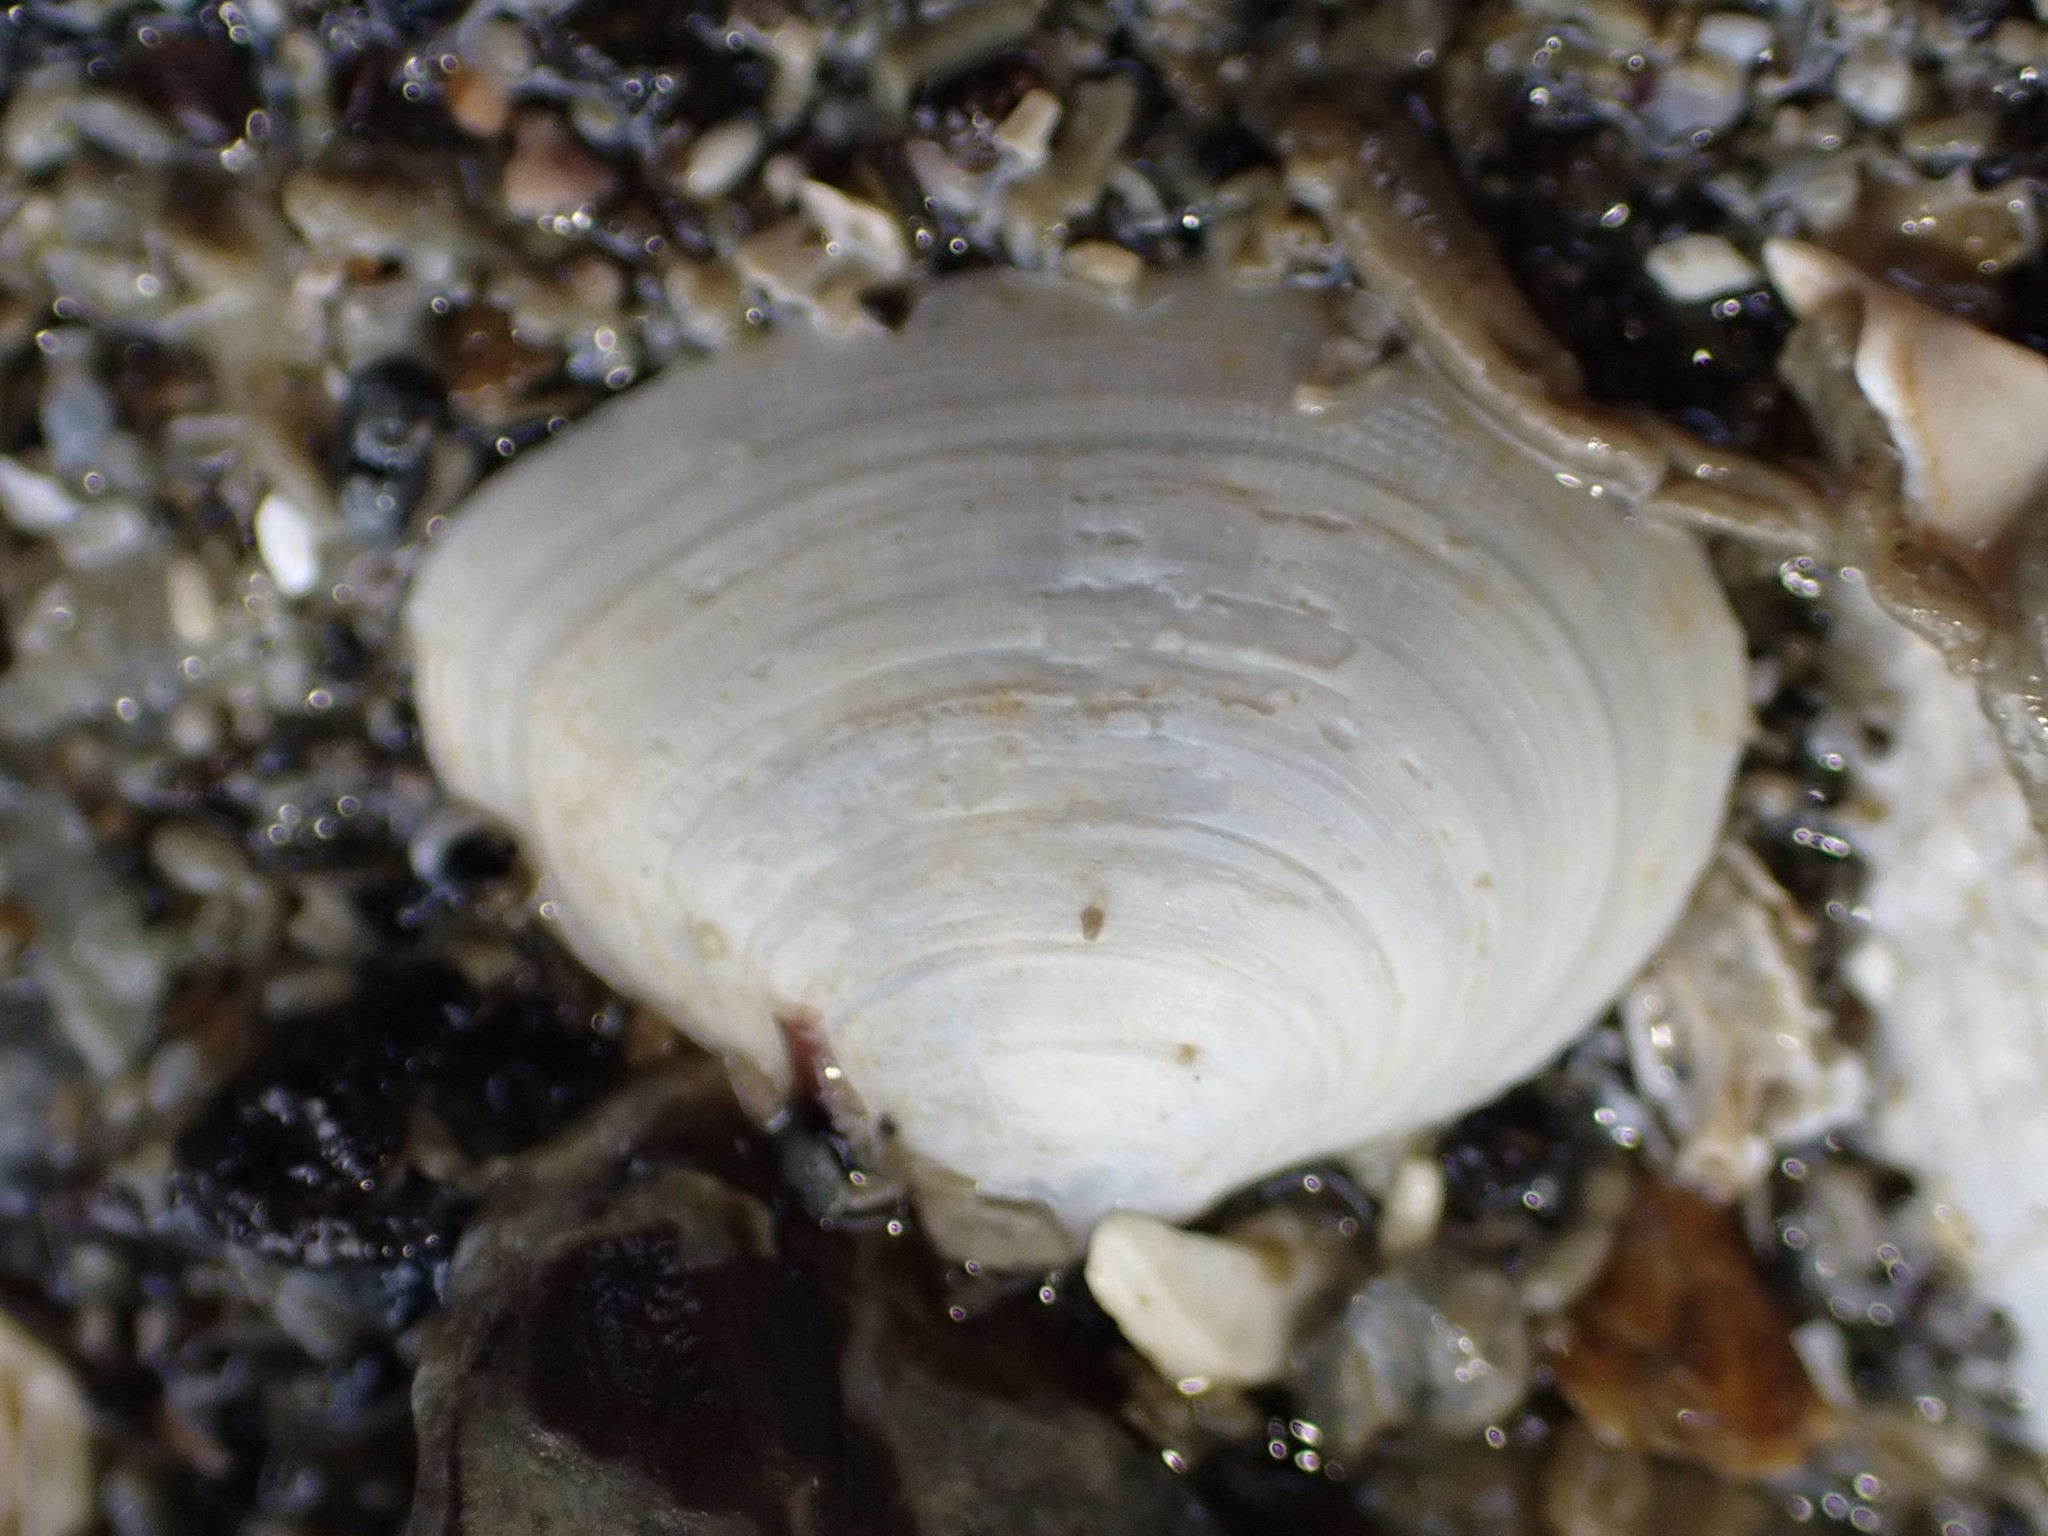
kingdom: Animalia
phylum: Mollusca
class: Bivalvia
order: Cardiida
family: Semelidae
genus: Leptomya
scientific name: Leptomya retiaria
